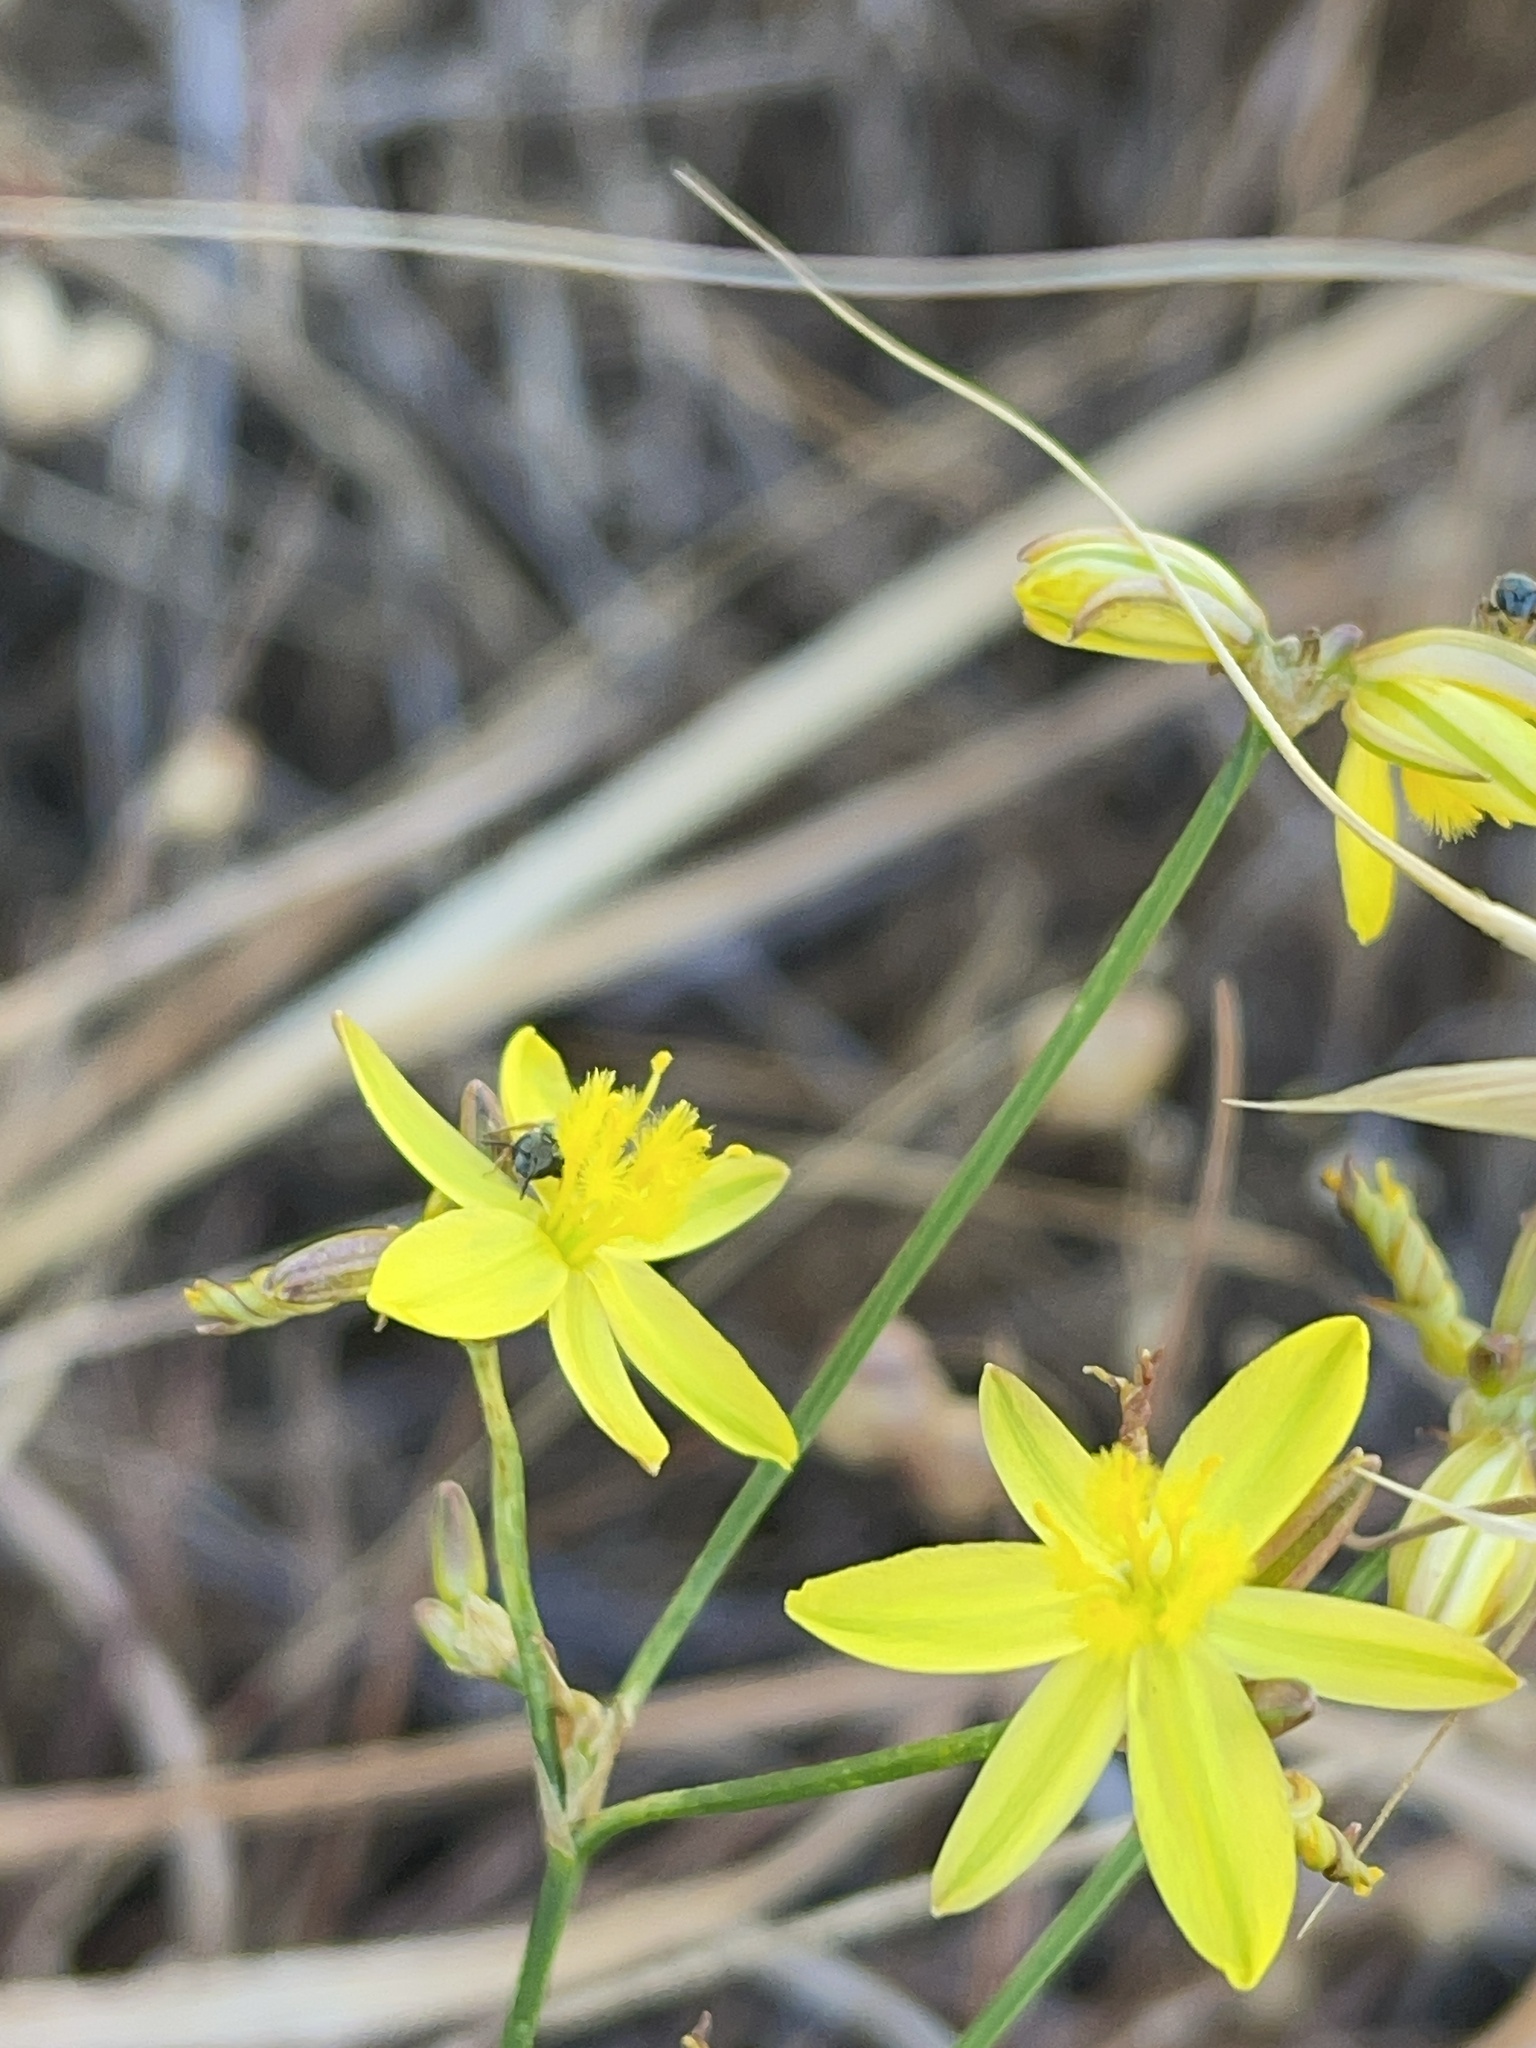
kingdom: Plantae
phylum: Tracheophyta
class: Liliopsida
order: Asparagales
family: Asphodelaceae
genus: Tricoryne
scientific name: Tricoryne elatior
